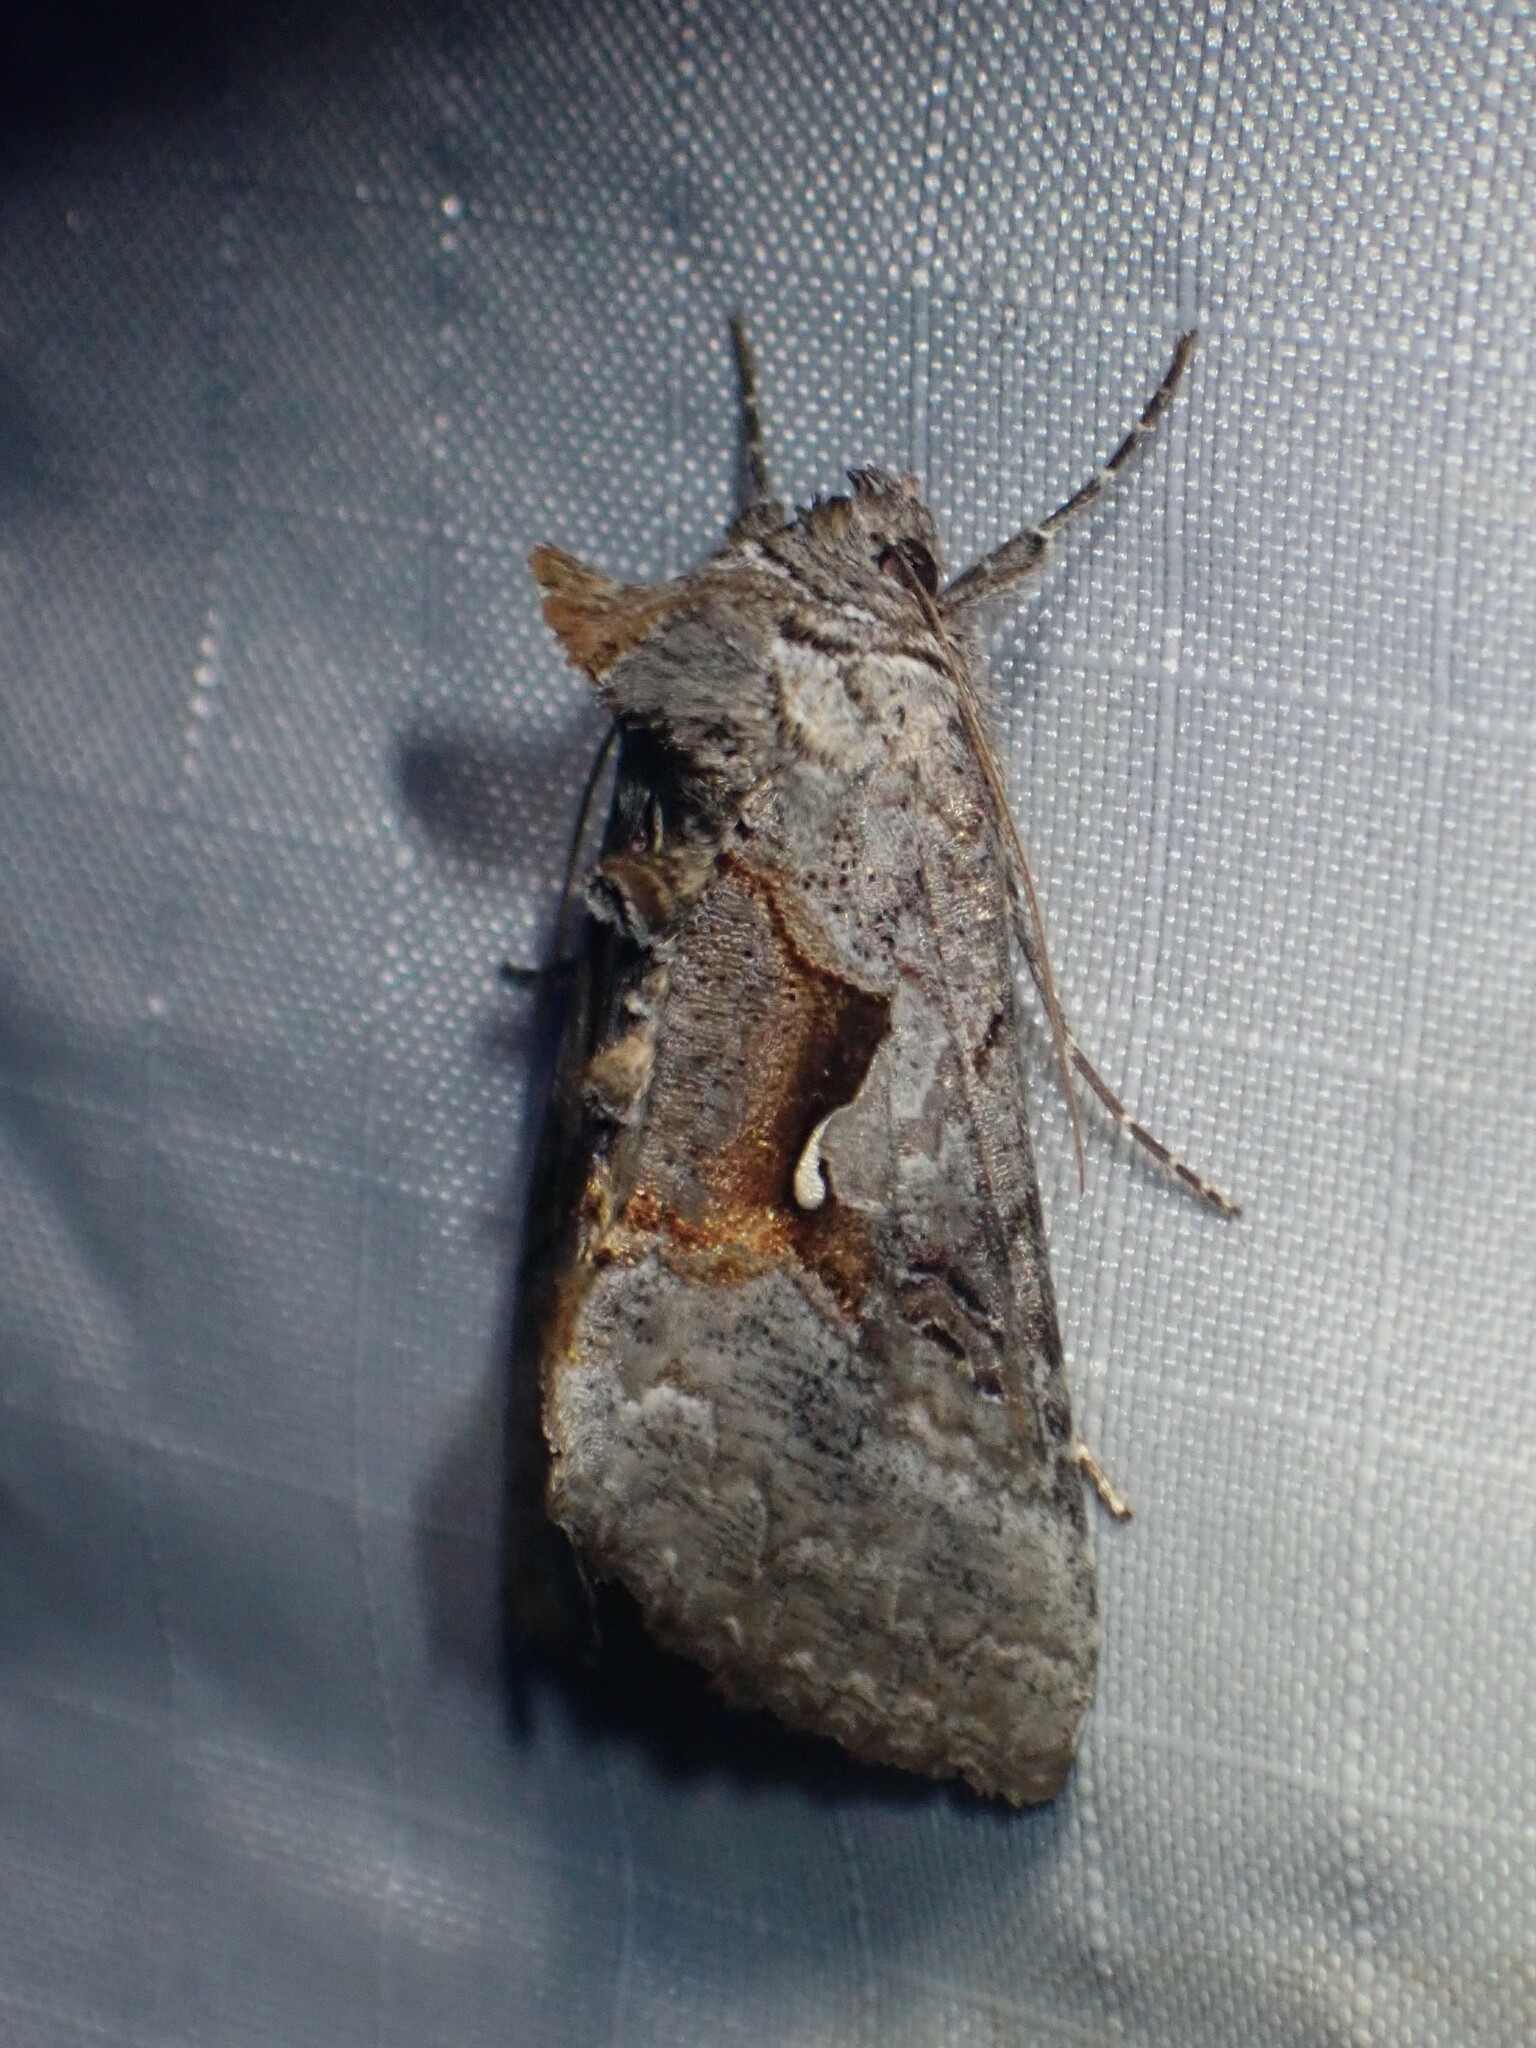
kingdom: Animalia
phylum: Arthropoda
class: Insecta
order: Lepidoptera
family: Noctuidae
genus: Syngrapha
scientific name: Syngrapha epigaea
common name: Epigaea looper moth
